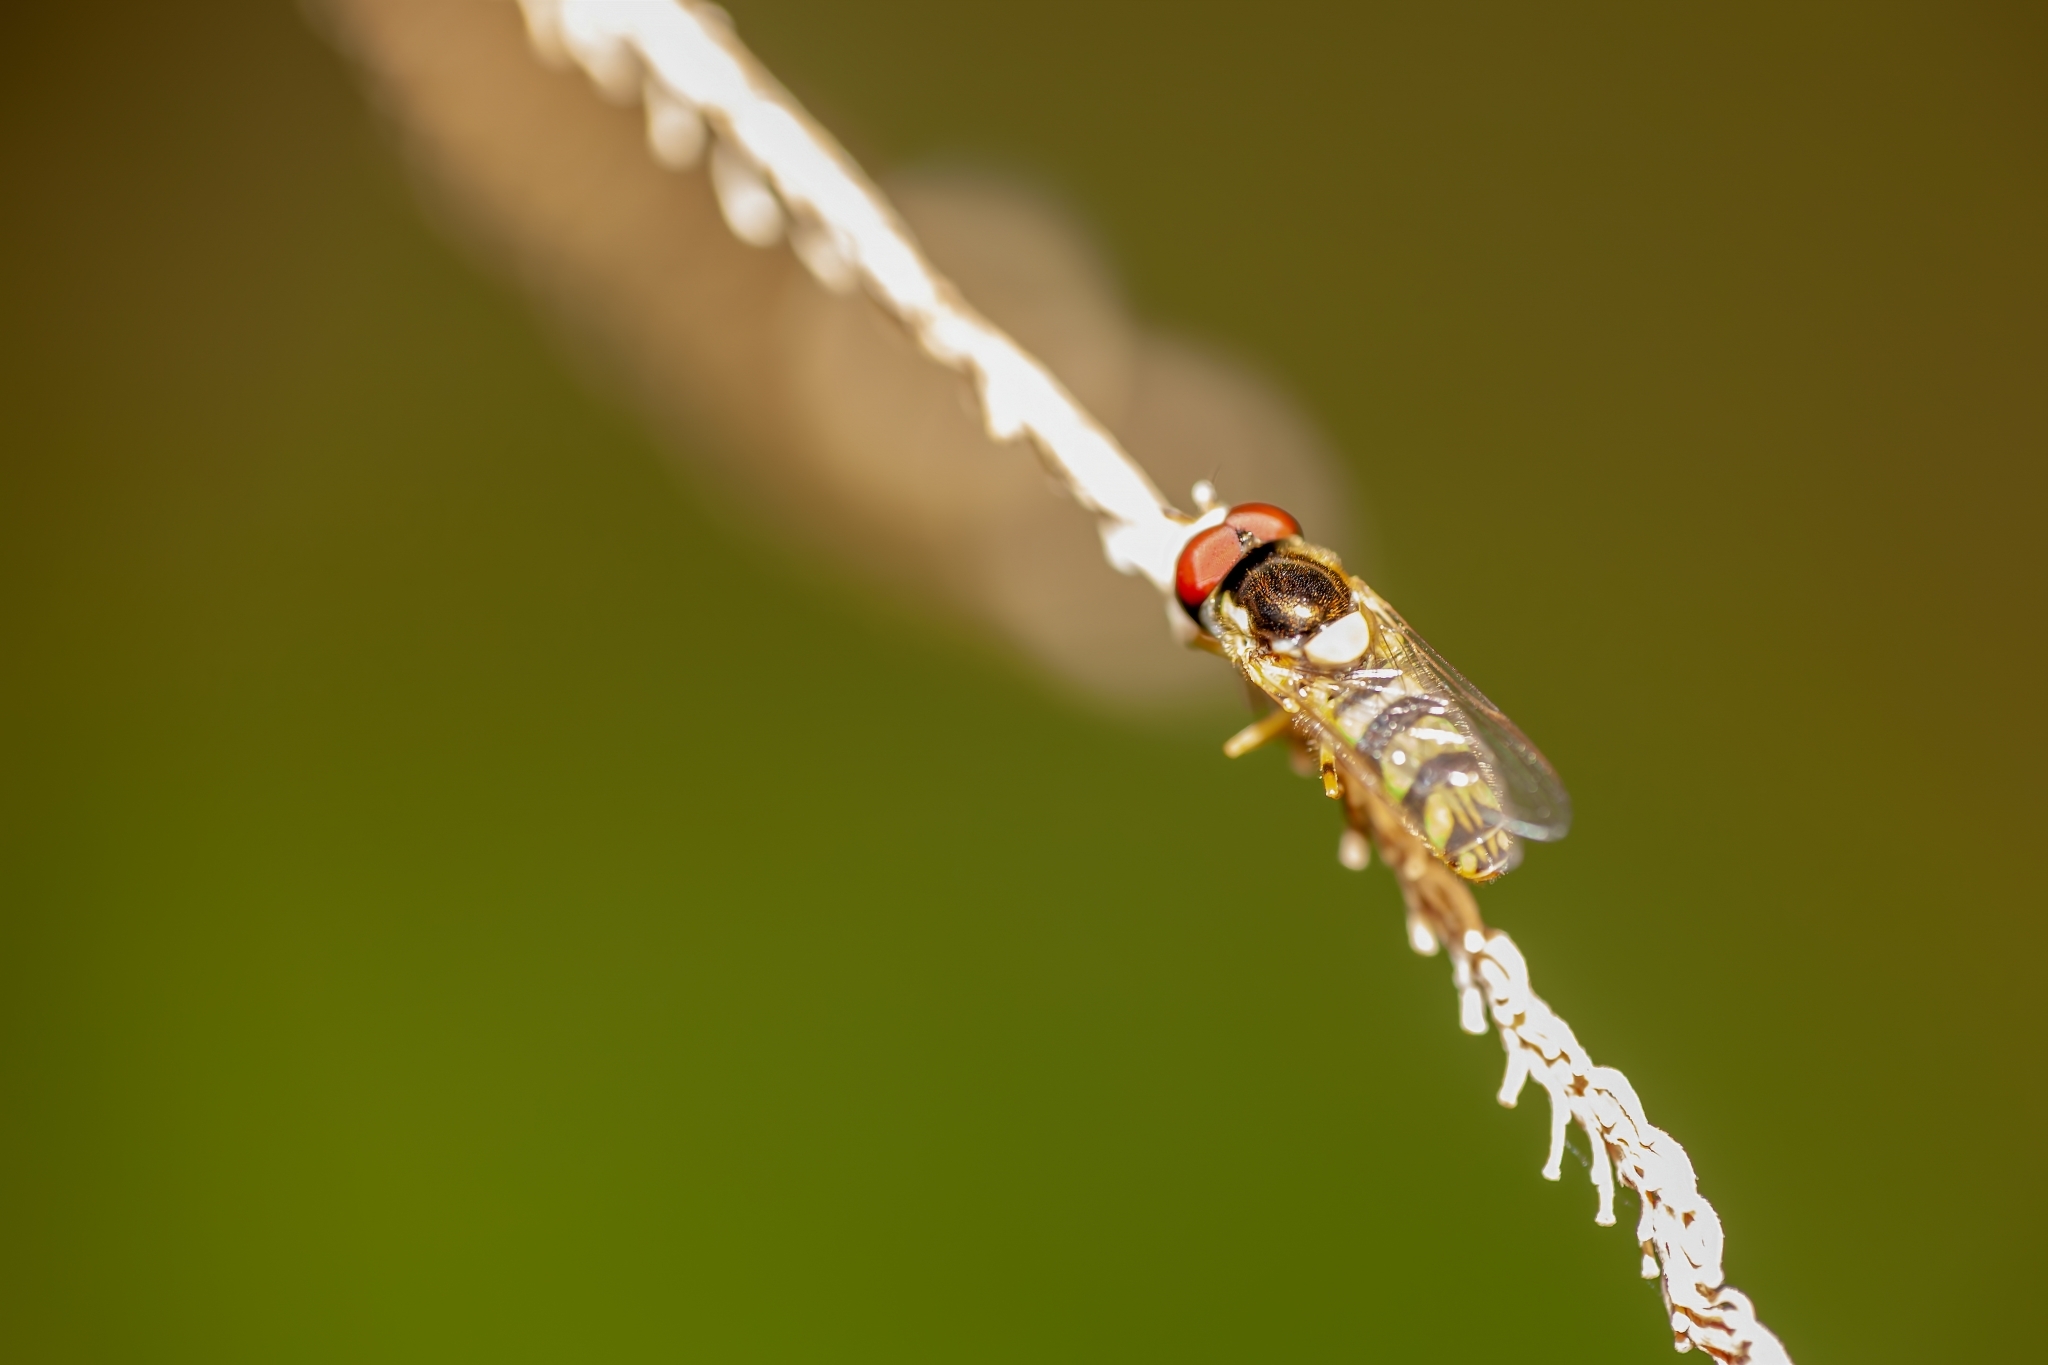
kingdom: Animalia
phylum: Arthropoda
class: Insecta
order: Diptera
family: Syrphidae
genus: Allograpta
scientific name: Allograpta exotica
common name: Syrphid fly
